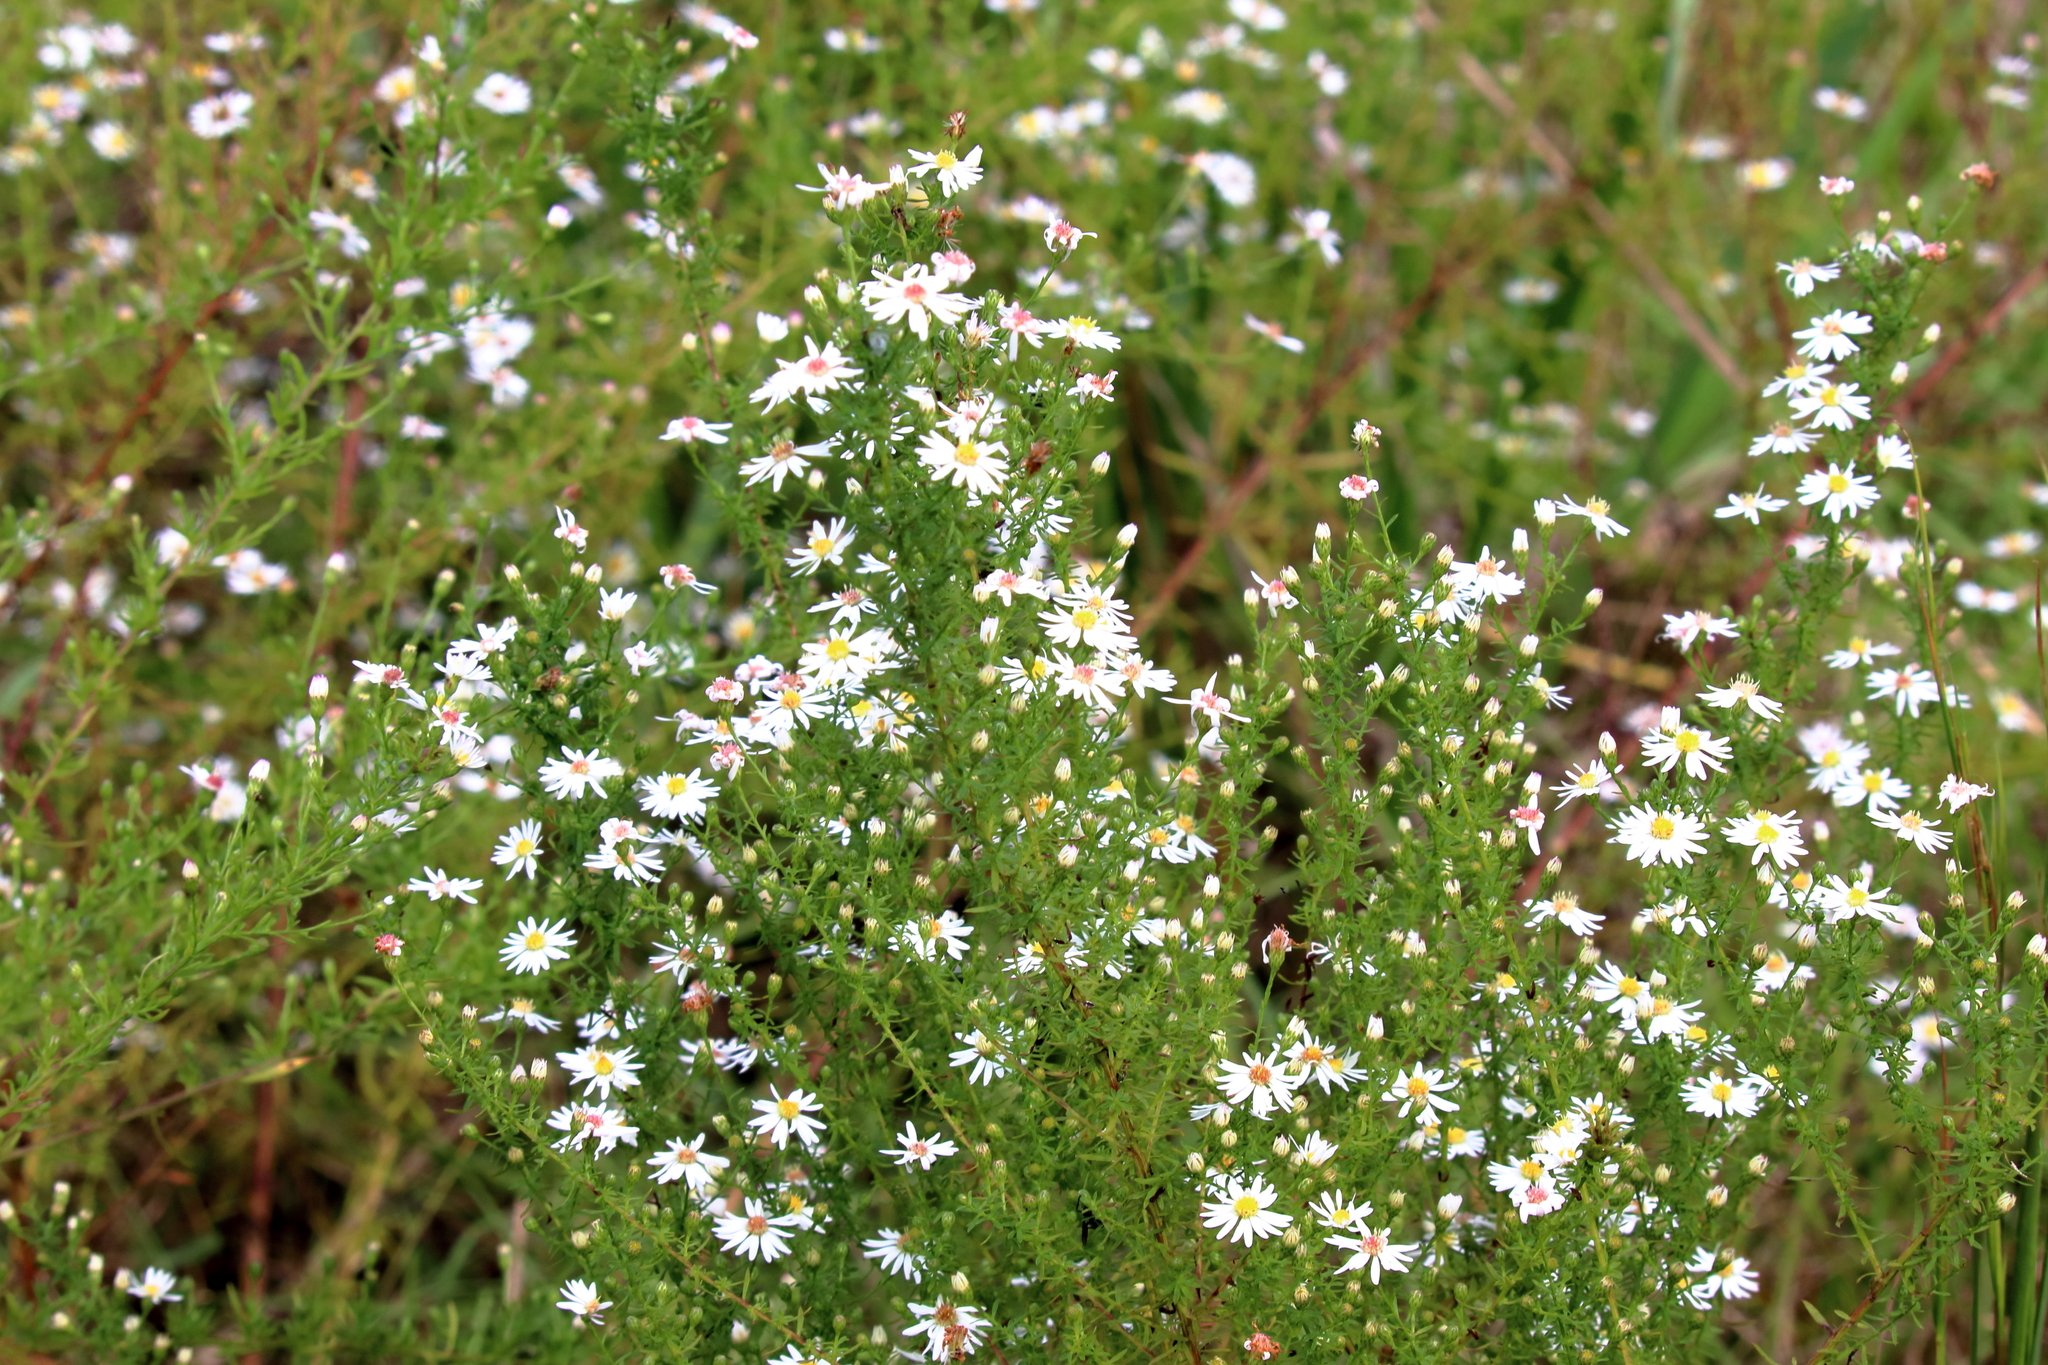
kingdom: Plantae
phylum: Tracheophyta
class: Magnoliopsida
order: Asterales
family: Asteraceae
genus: Symphyotrichum
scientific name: Symphyotrichum dumosum
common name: Bushy aster
